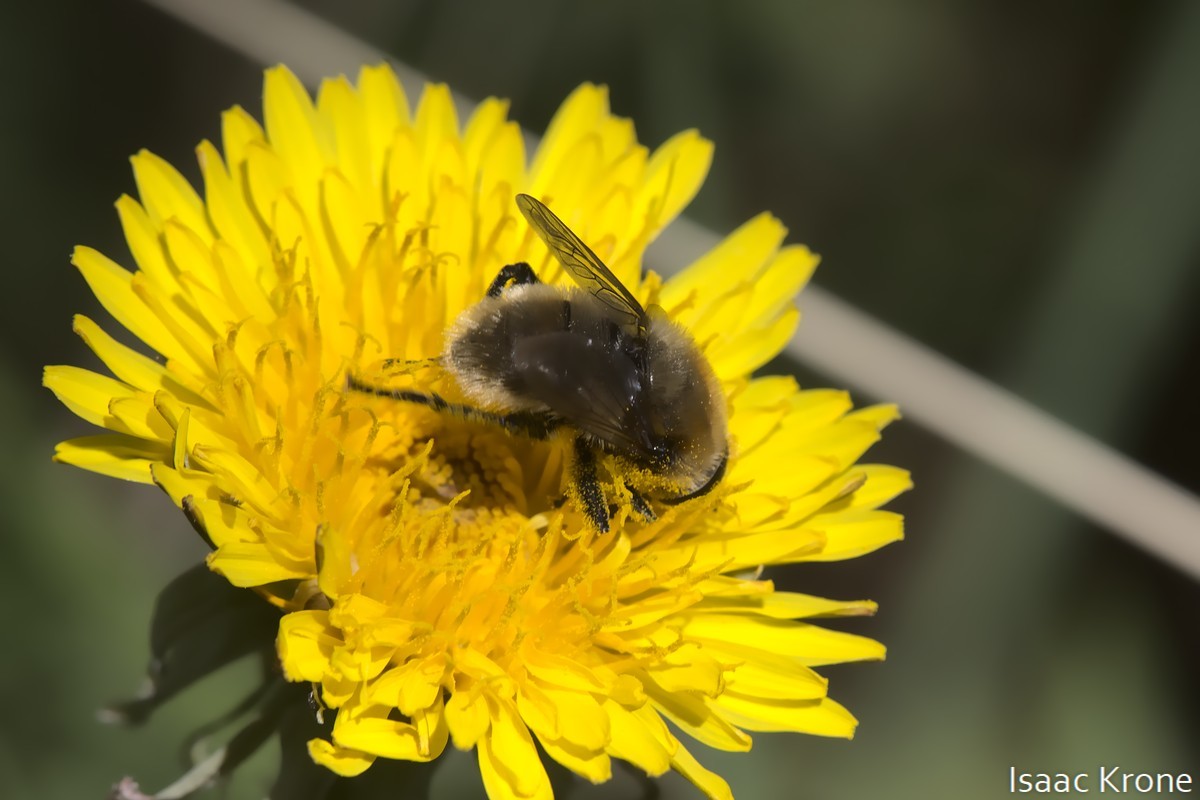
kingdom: Animalia
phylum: Arthropoda
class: Insecta
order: Diptera
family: Syrphidae
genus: Merodon
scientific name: Merodon equestris
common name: Greater bulb-fly
